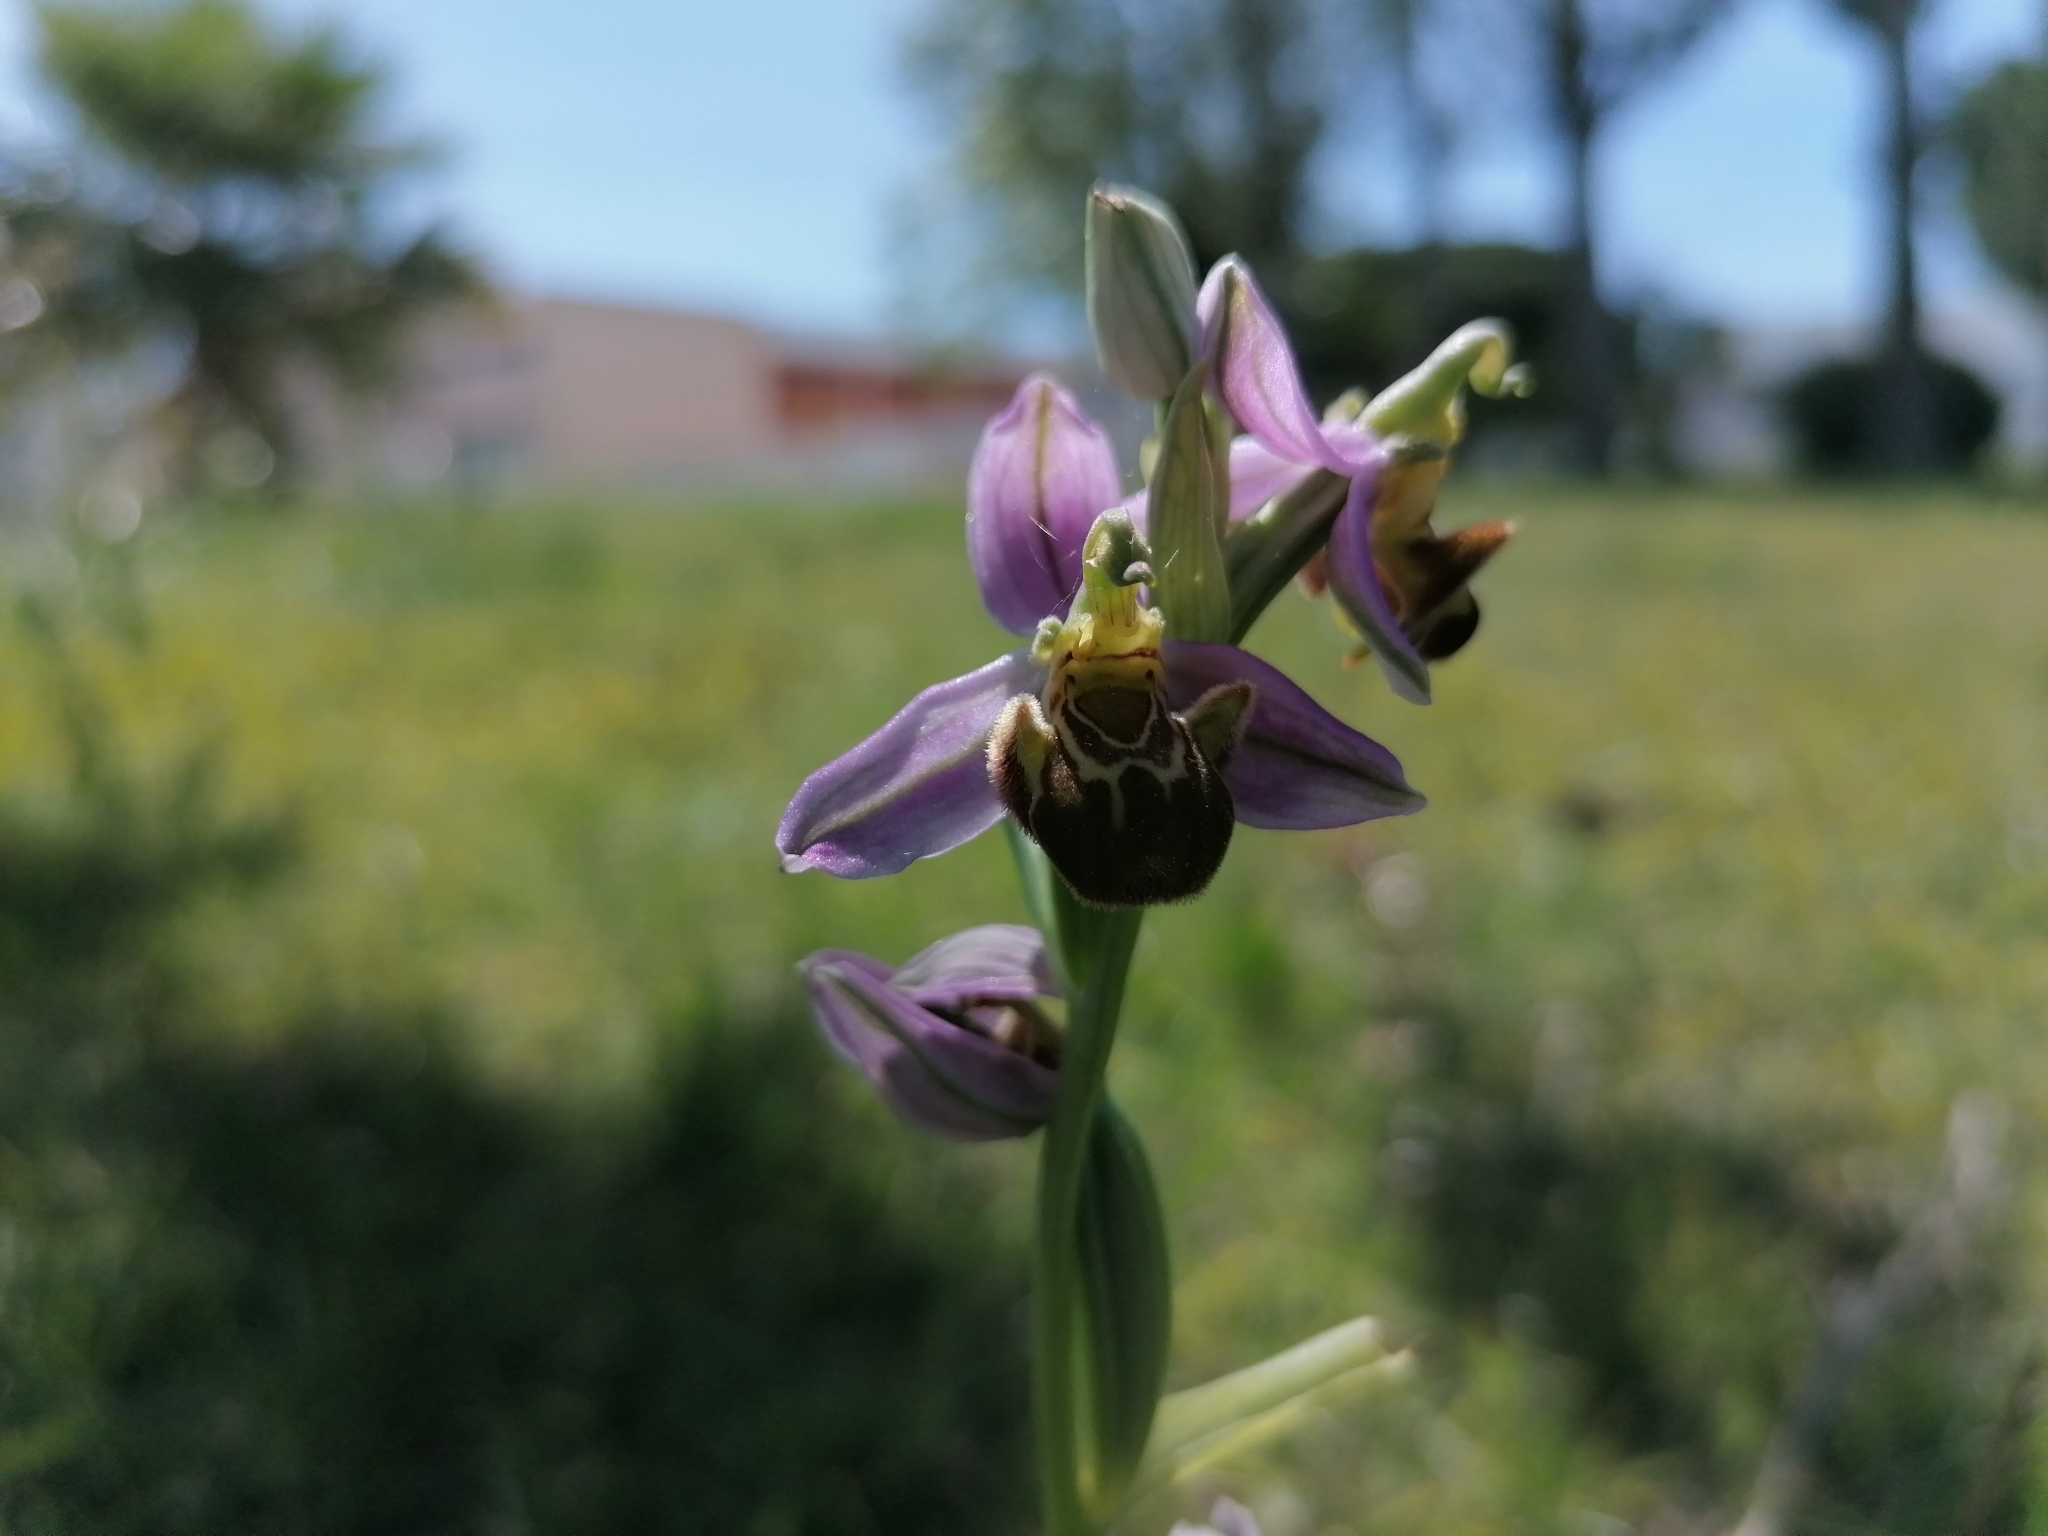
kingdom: Plantae
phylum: Tracheophyta
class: Liliopsida
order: Asparagales
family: Orchidaceae
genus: Ophrys
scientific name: Ophrys apifera
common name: Bee orchid
